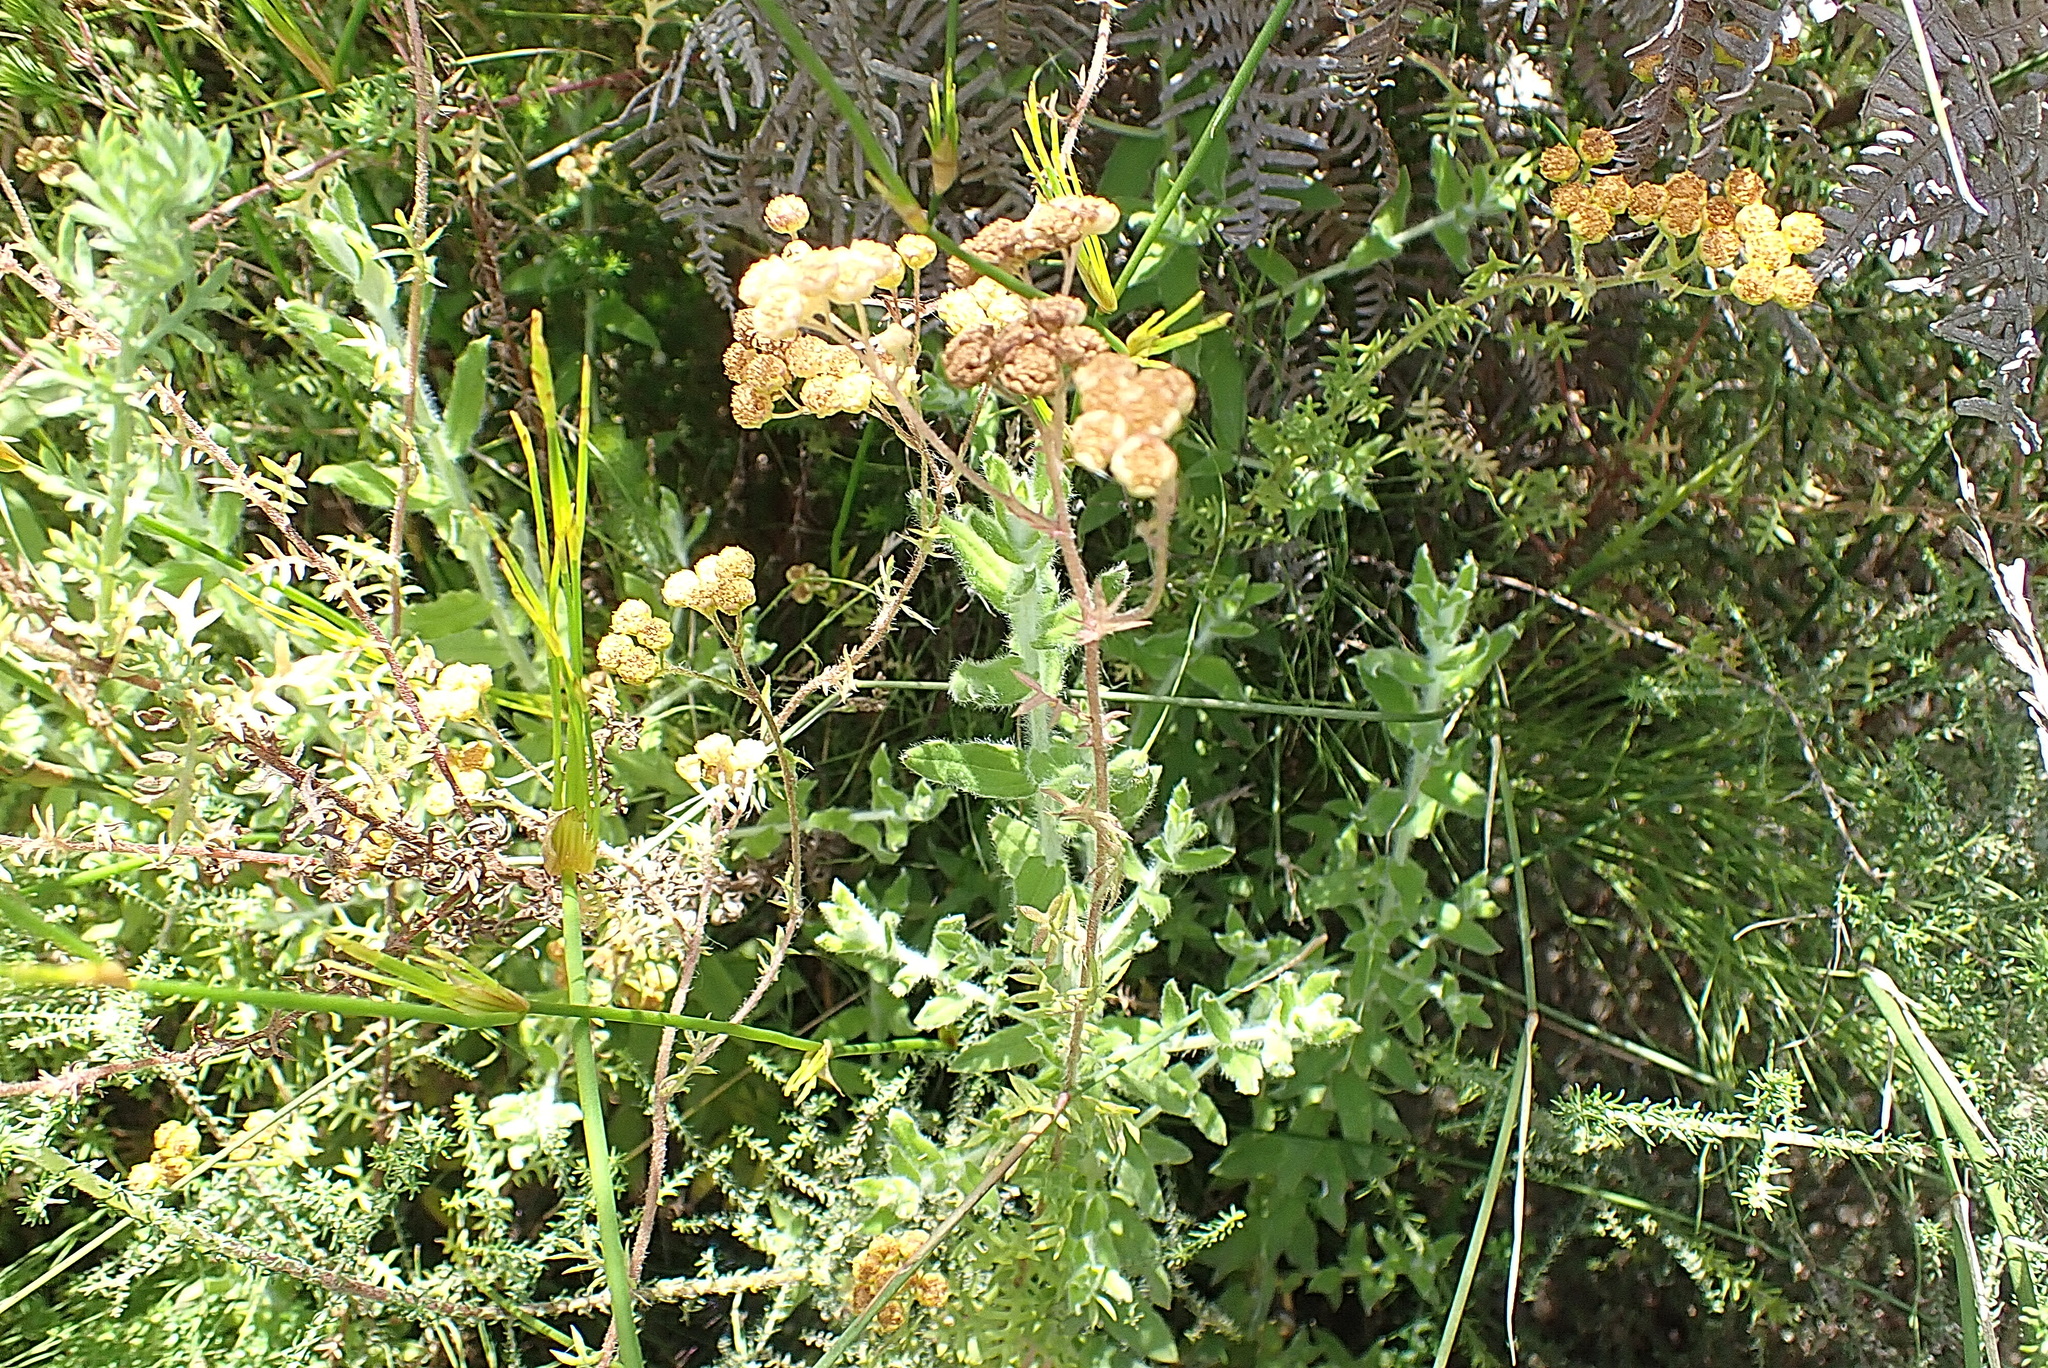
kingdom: Plantae
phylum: Tracheophyta
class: Magnoliopsida
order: Asterales
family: Asteraceae
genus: Hippia
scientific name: Hippia frutescens
